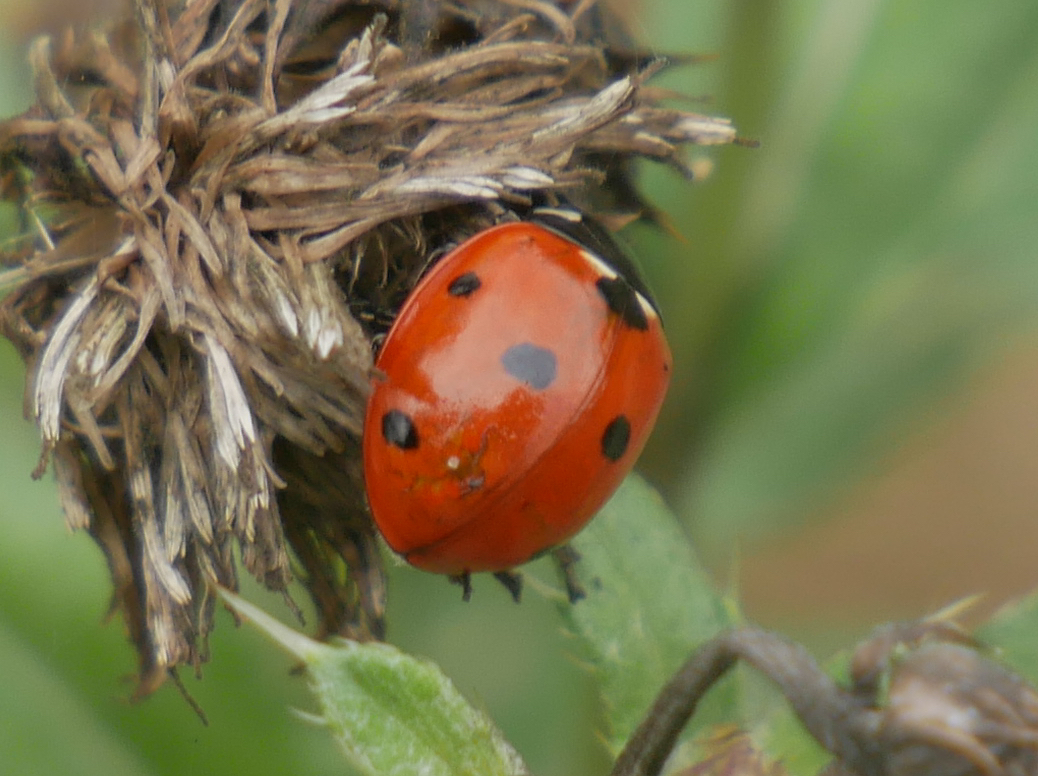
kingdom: Animalia
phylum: Arthropoda
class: Insecta
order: Coleoptera
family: Coccinellidae
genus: Coccinella
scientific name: Coccinella septempunctata
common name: Sevenspotted lady beetle
